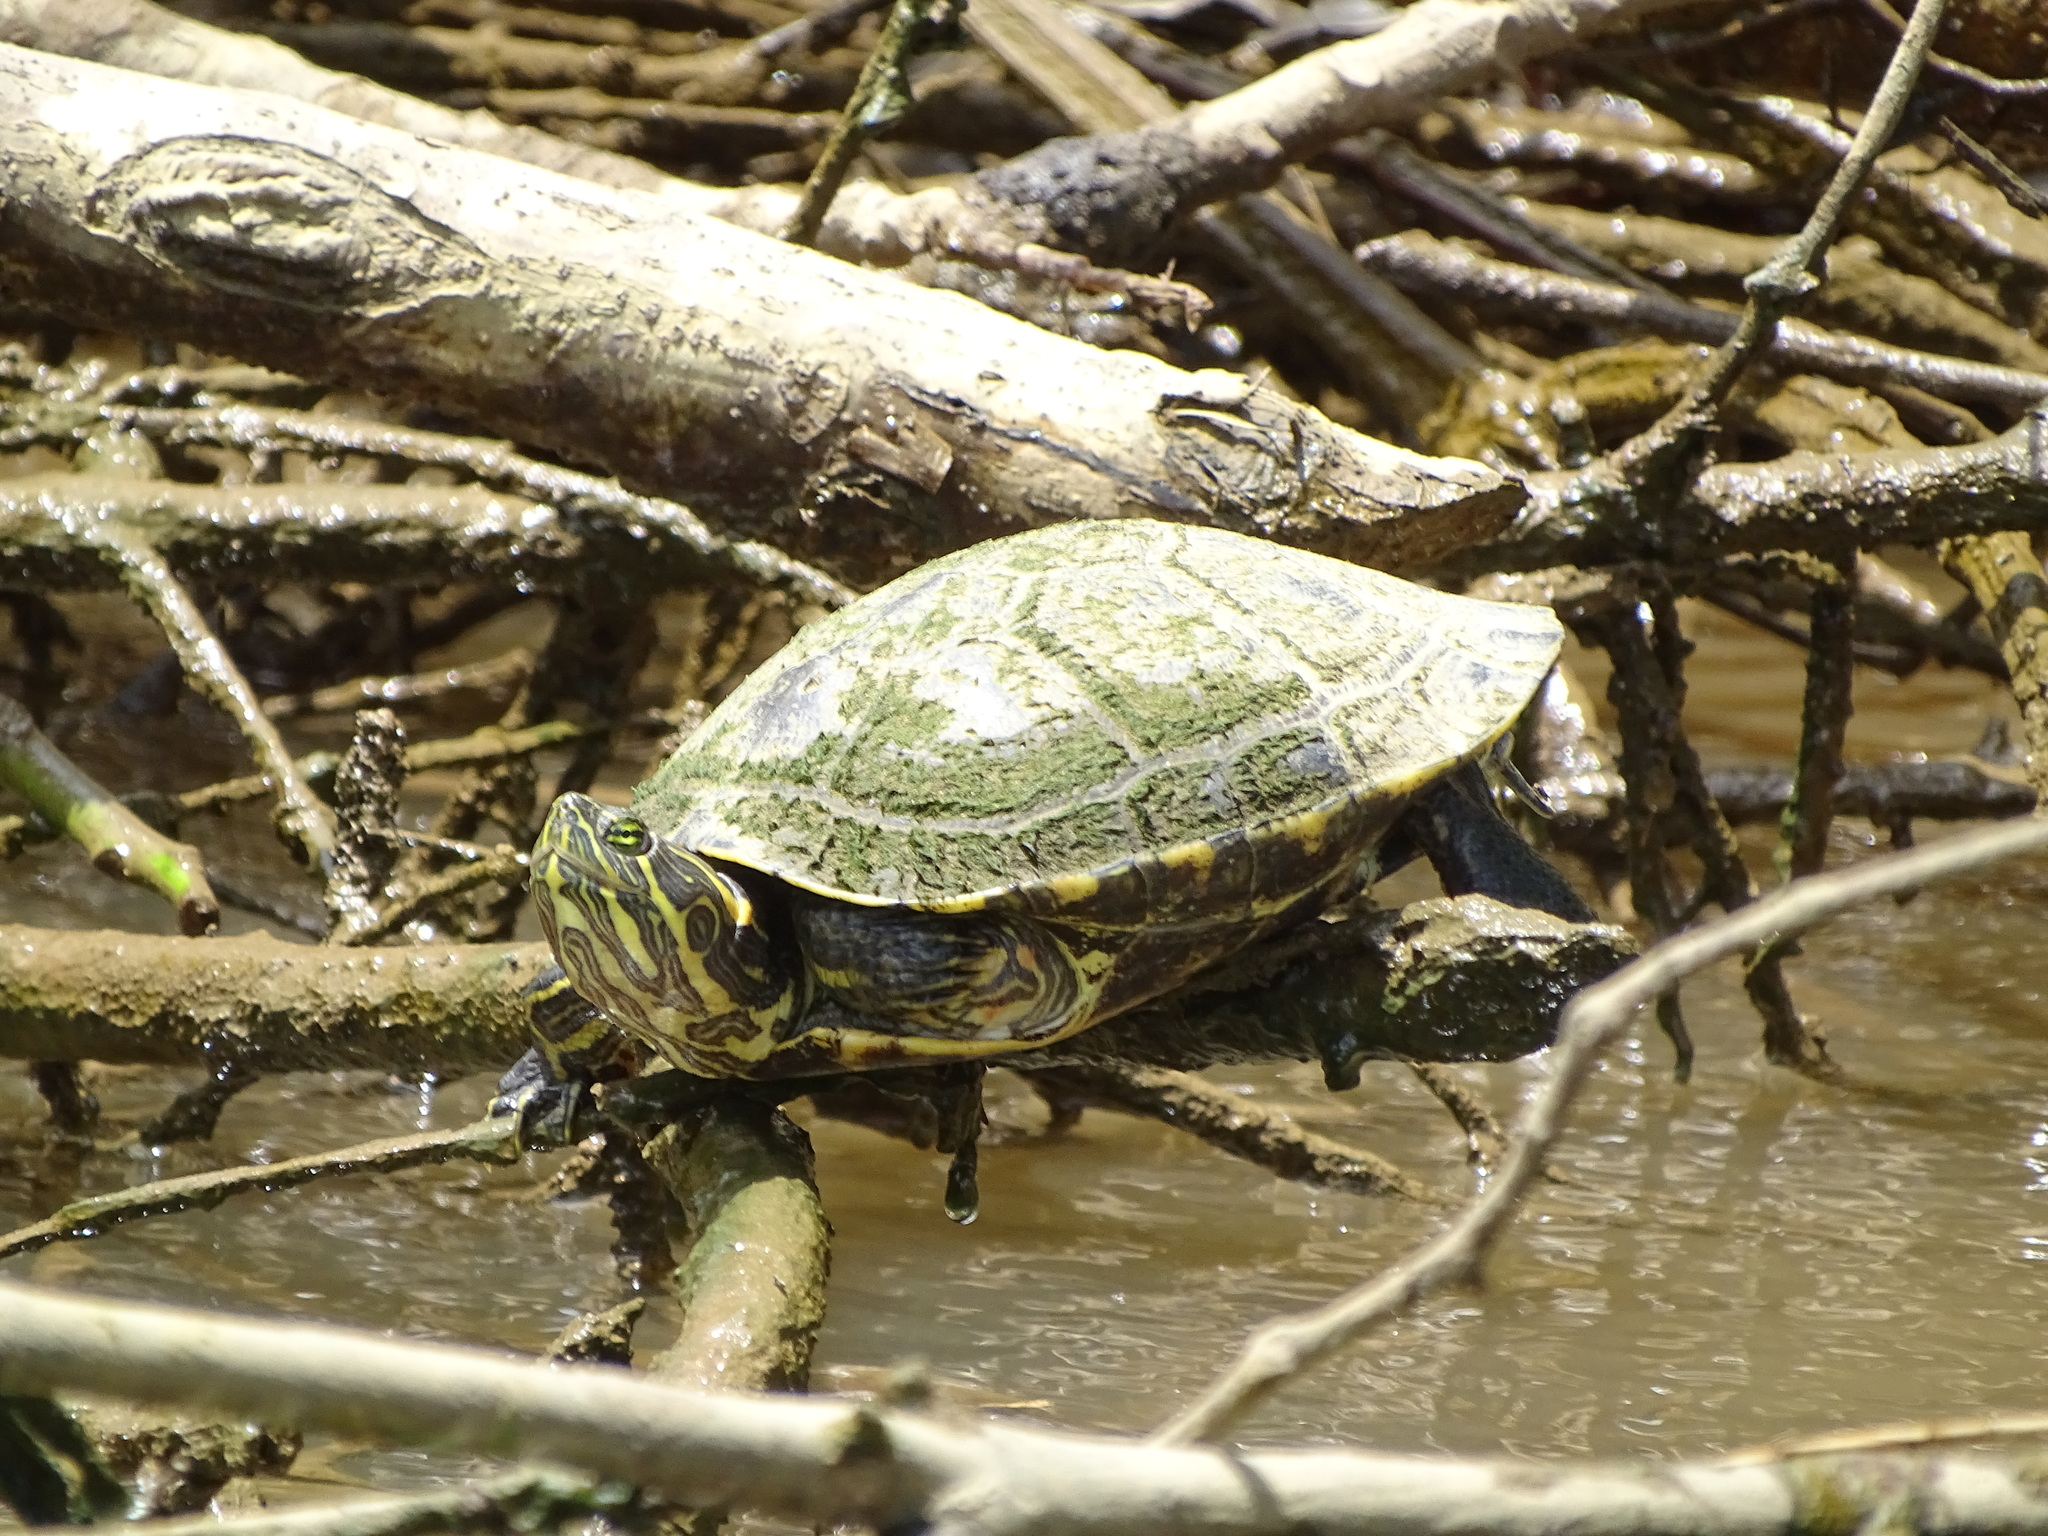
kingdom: Animalia
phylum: Chordata
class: Testudines
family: Emydidae
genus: Trachemys
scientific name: Trachemys grayi
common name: Gray's slider
